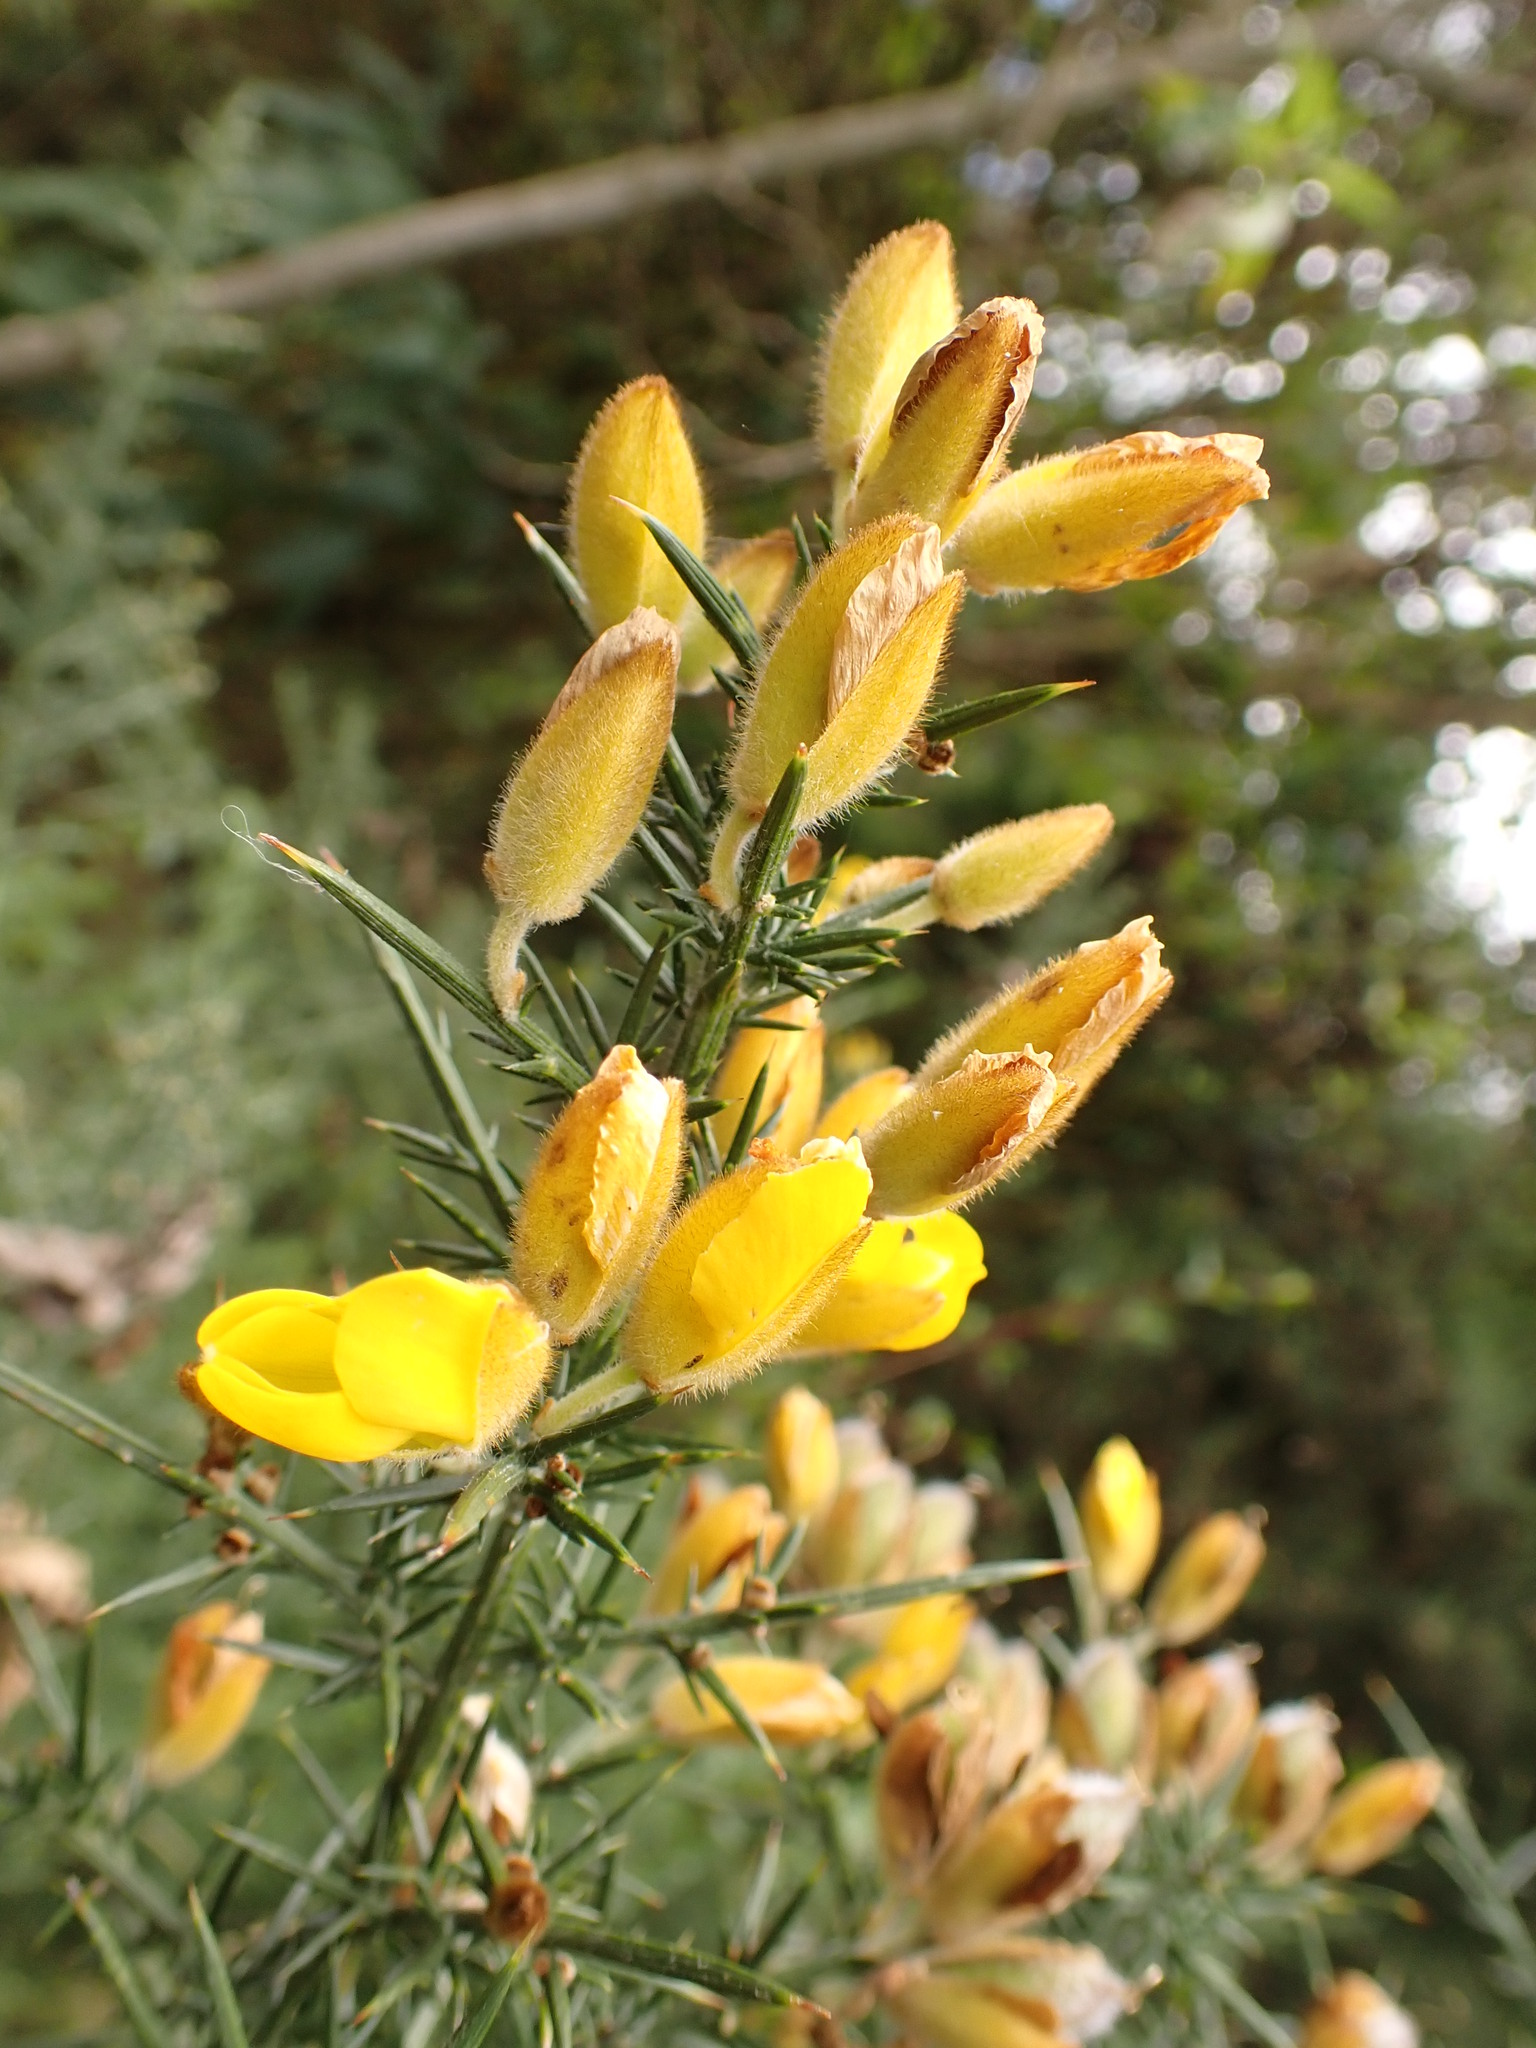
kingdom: Plantae
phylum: Tracheophyta
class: Magnoliopsida
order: Fabales
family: Fabaceae
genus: Ulex
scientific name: Ulex europaeus
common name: Common gorse
